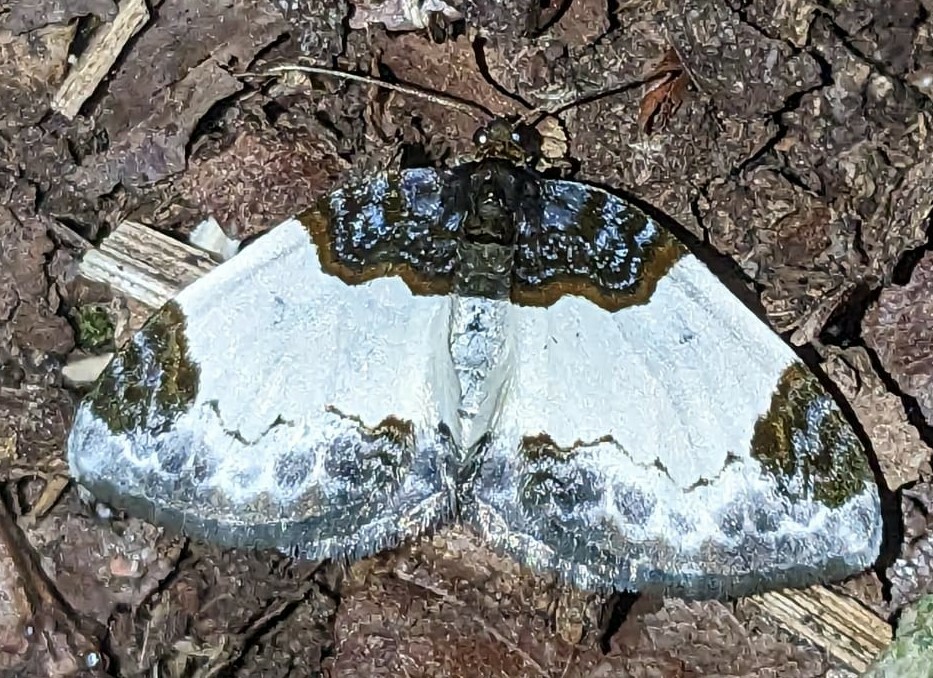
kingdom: Animalia
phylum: Arthropoda
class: Insecta
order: Lepidoptera
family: Geometridae
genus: Mesoleuca
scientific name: Mesoleuca albicillata
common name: Beautiful carpet
